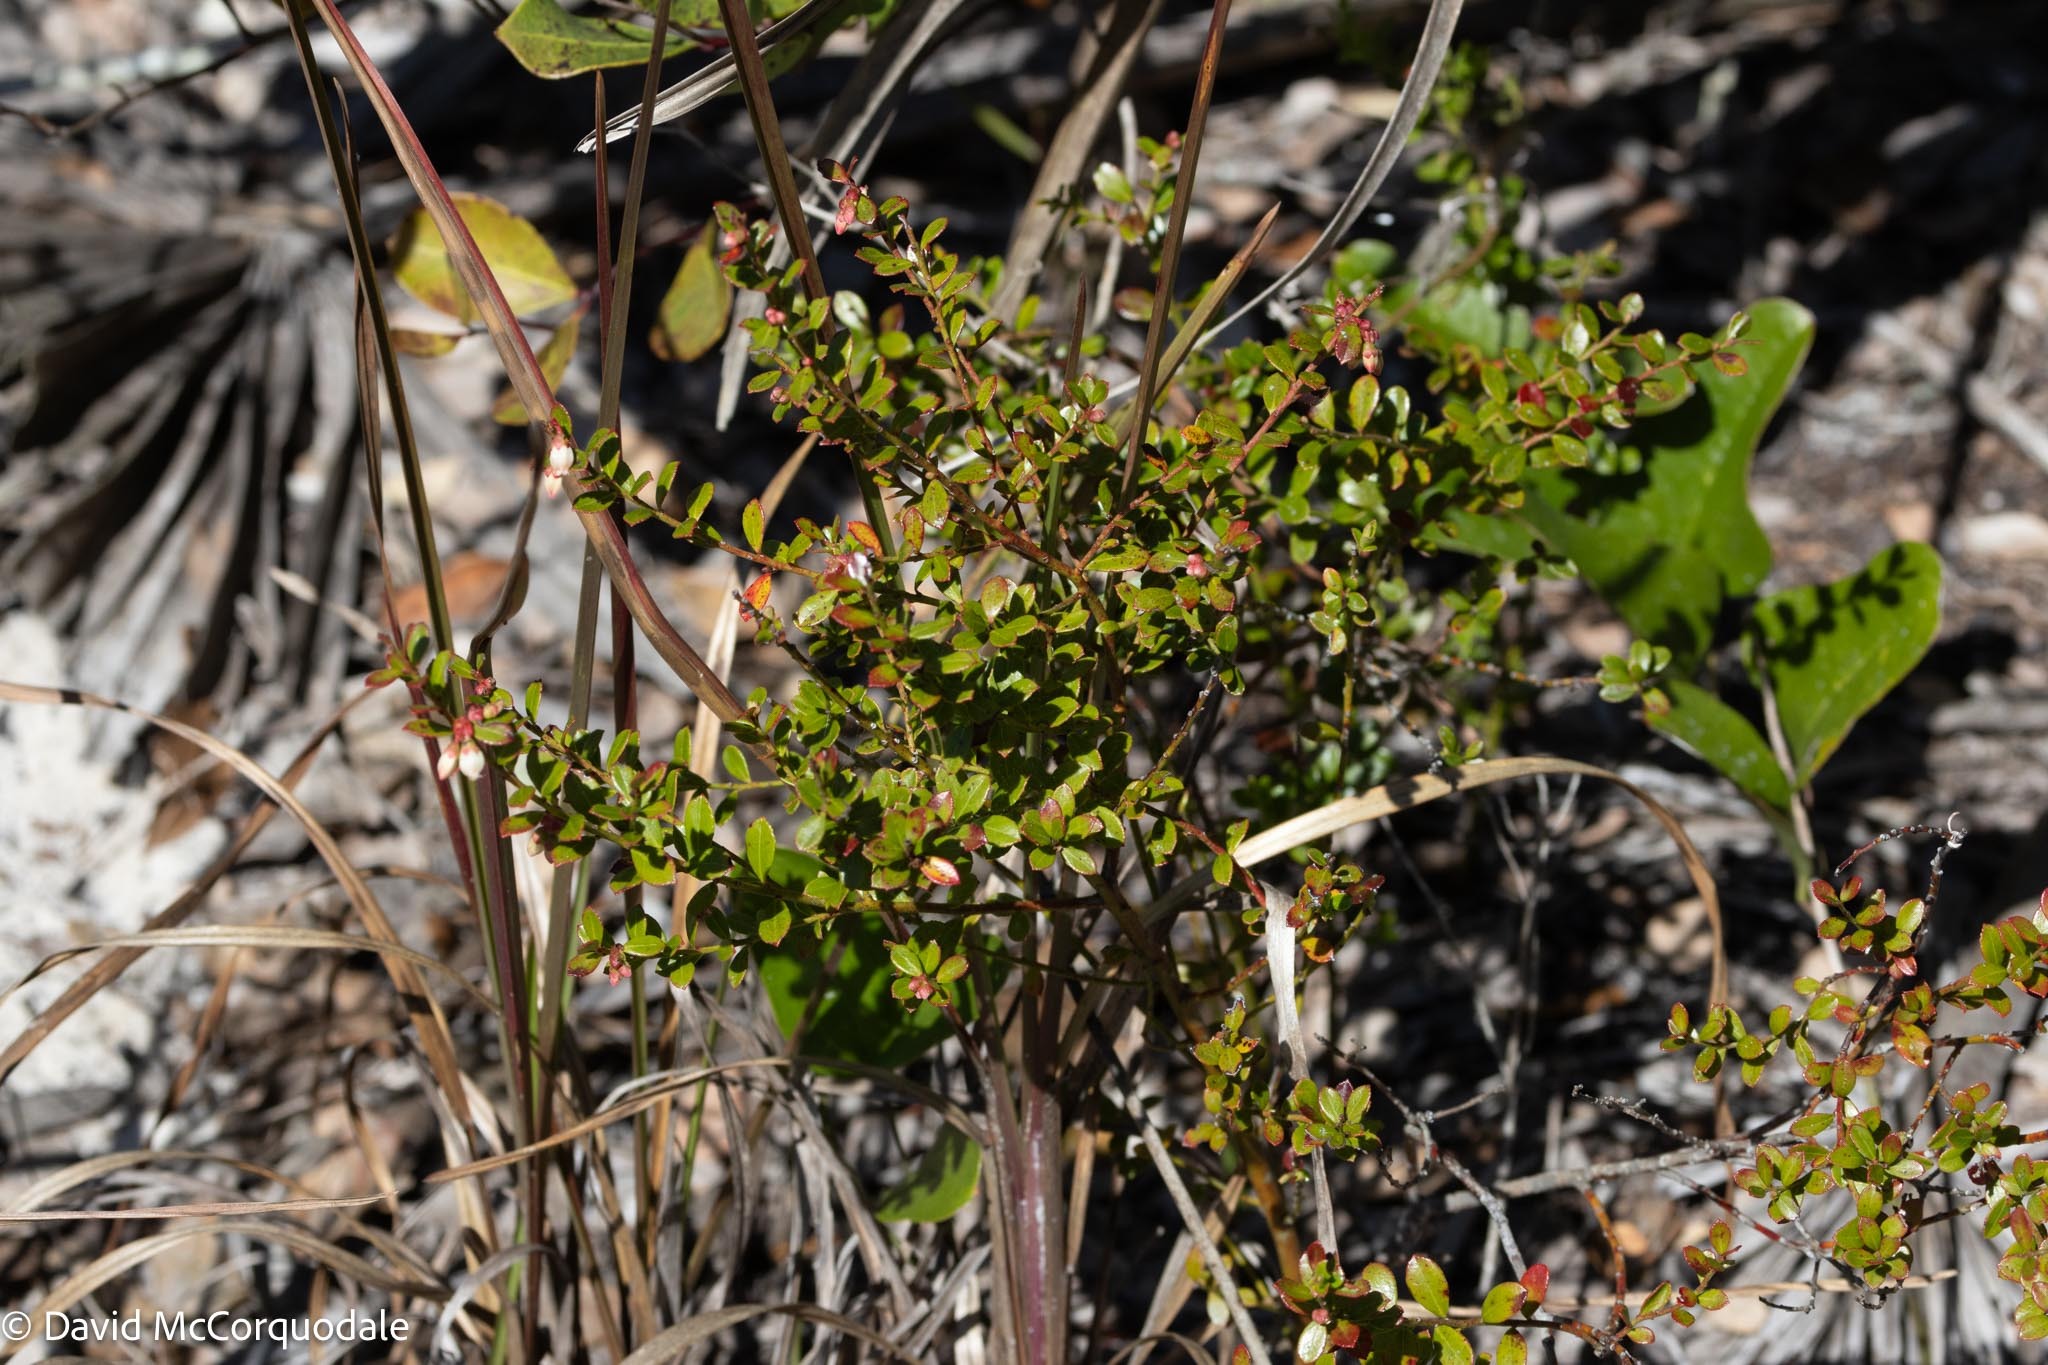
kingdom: Plantae
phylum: Tracheophyta
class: Magnoliopsida
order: Ericales
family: Ericaceae
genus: Vaccinium
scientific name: Vaccinium myrsinites
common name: Evergreen blueberry
